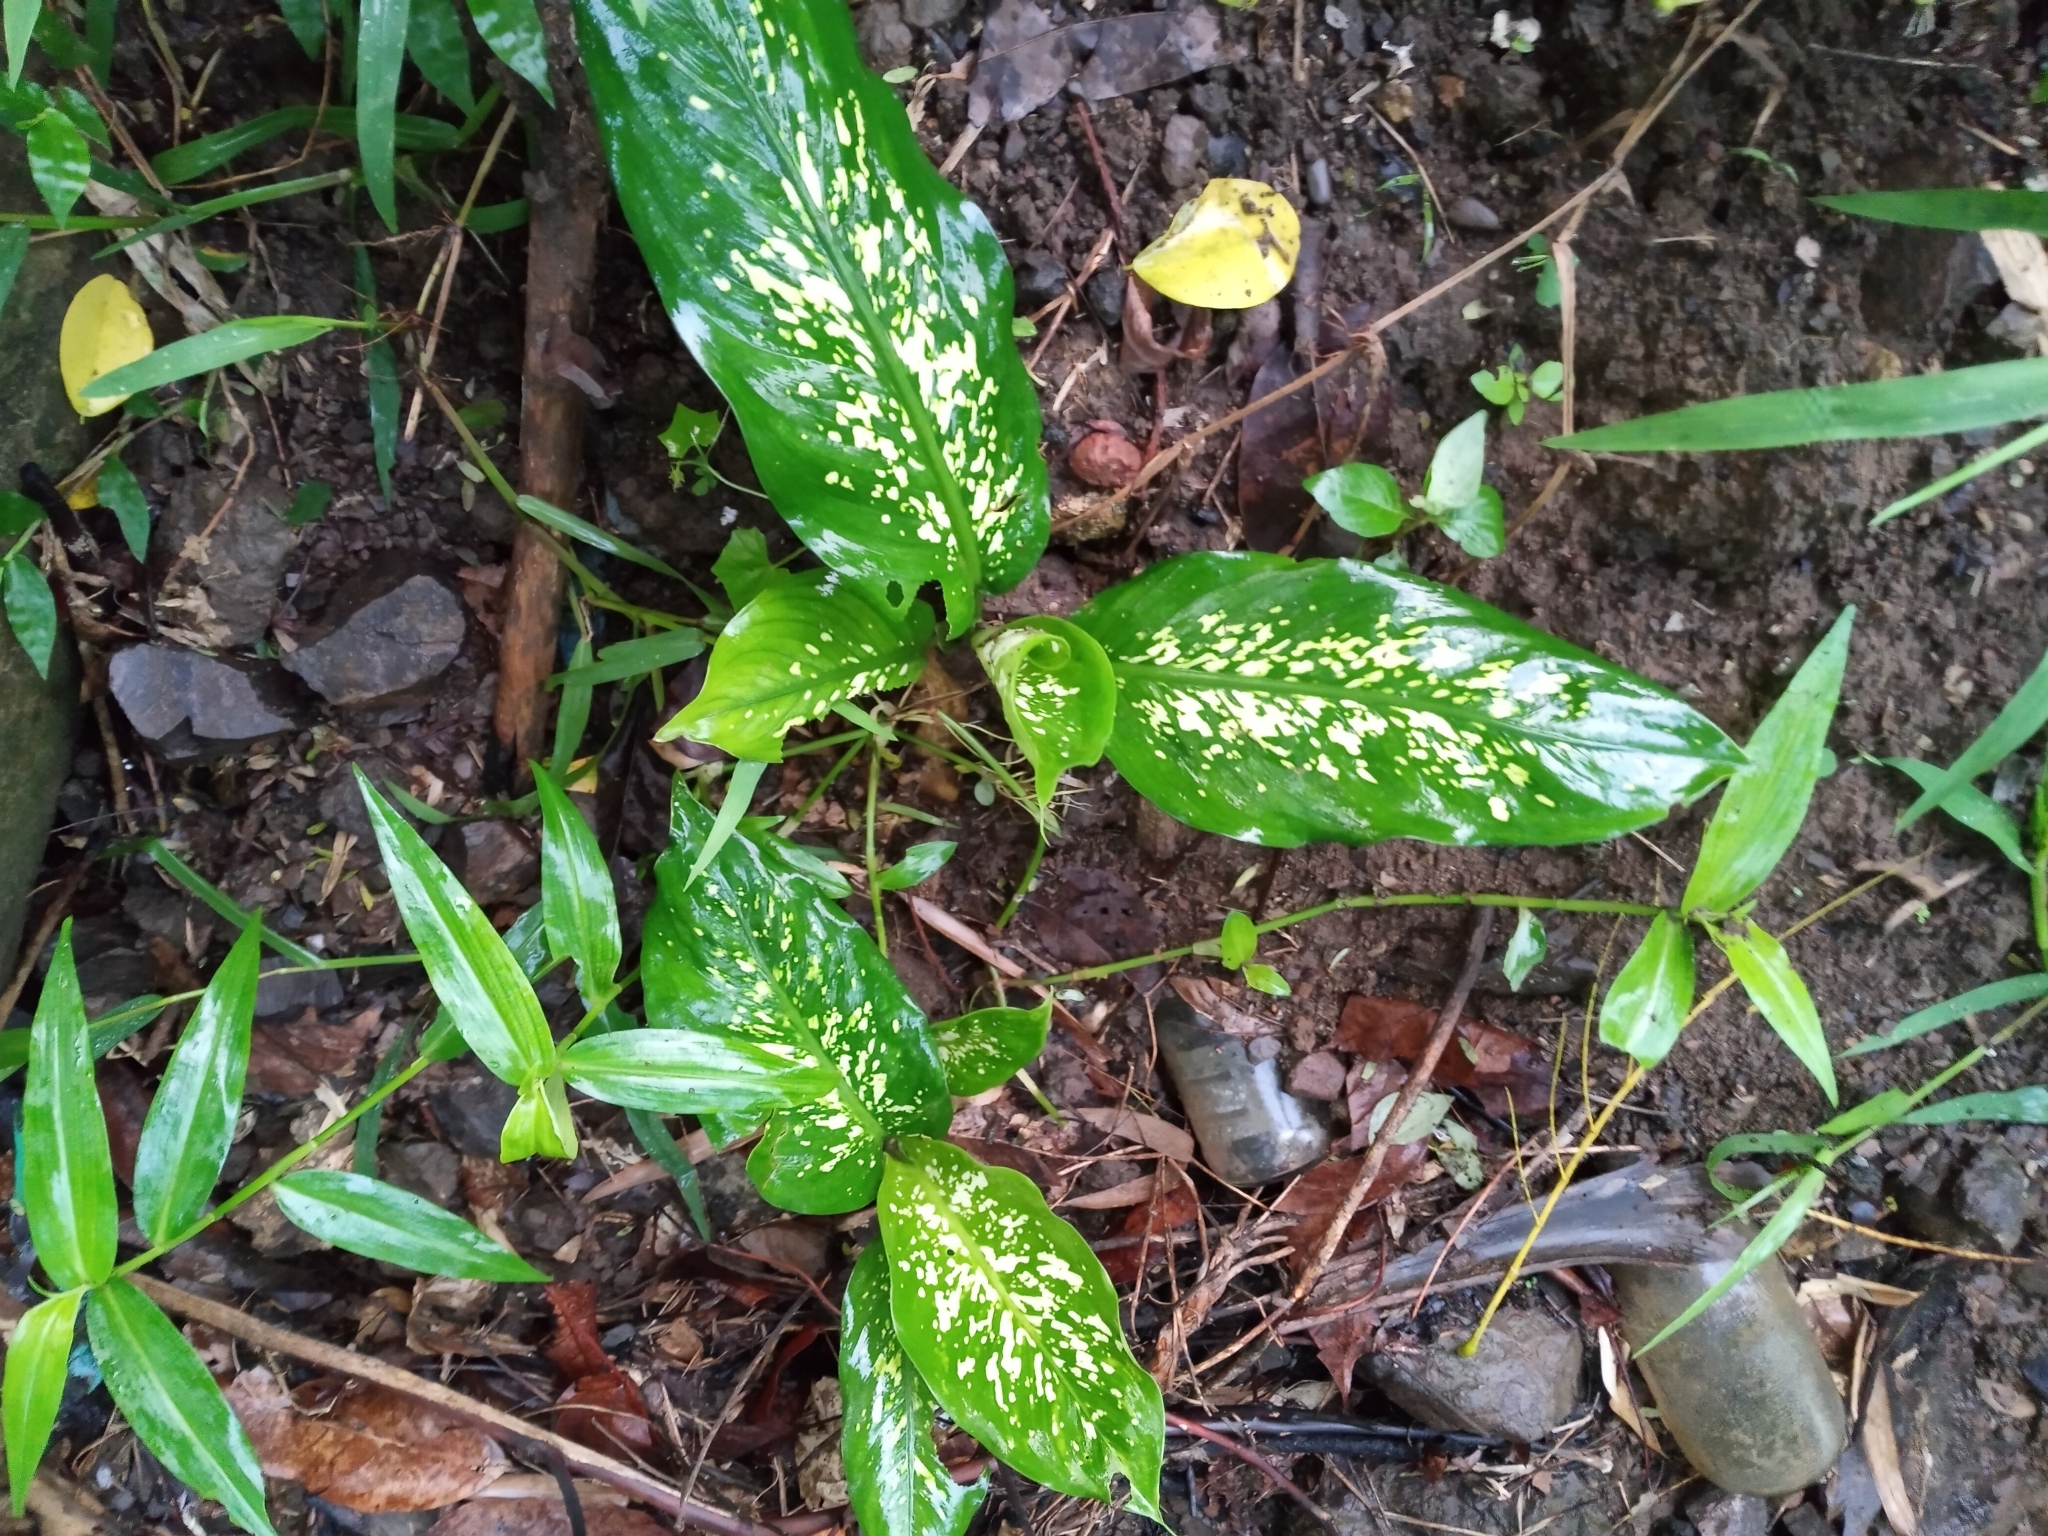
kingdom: Plantae
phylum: Tracheophyta
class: Liliopsida
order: Alismatales
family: Araceae
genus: Dieffenbachia
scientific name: Dieffenbachia seguine
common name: Dumbcane
